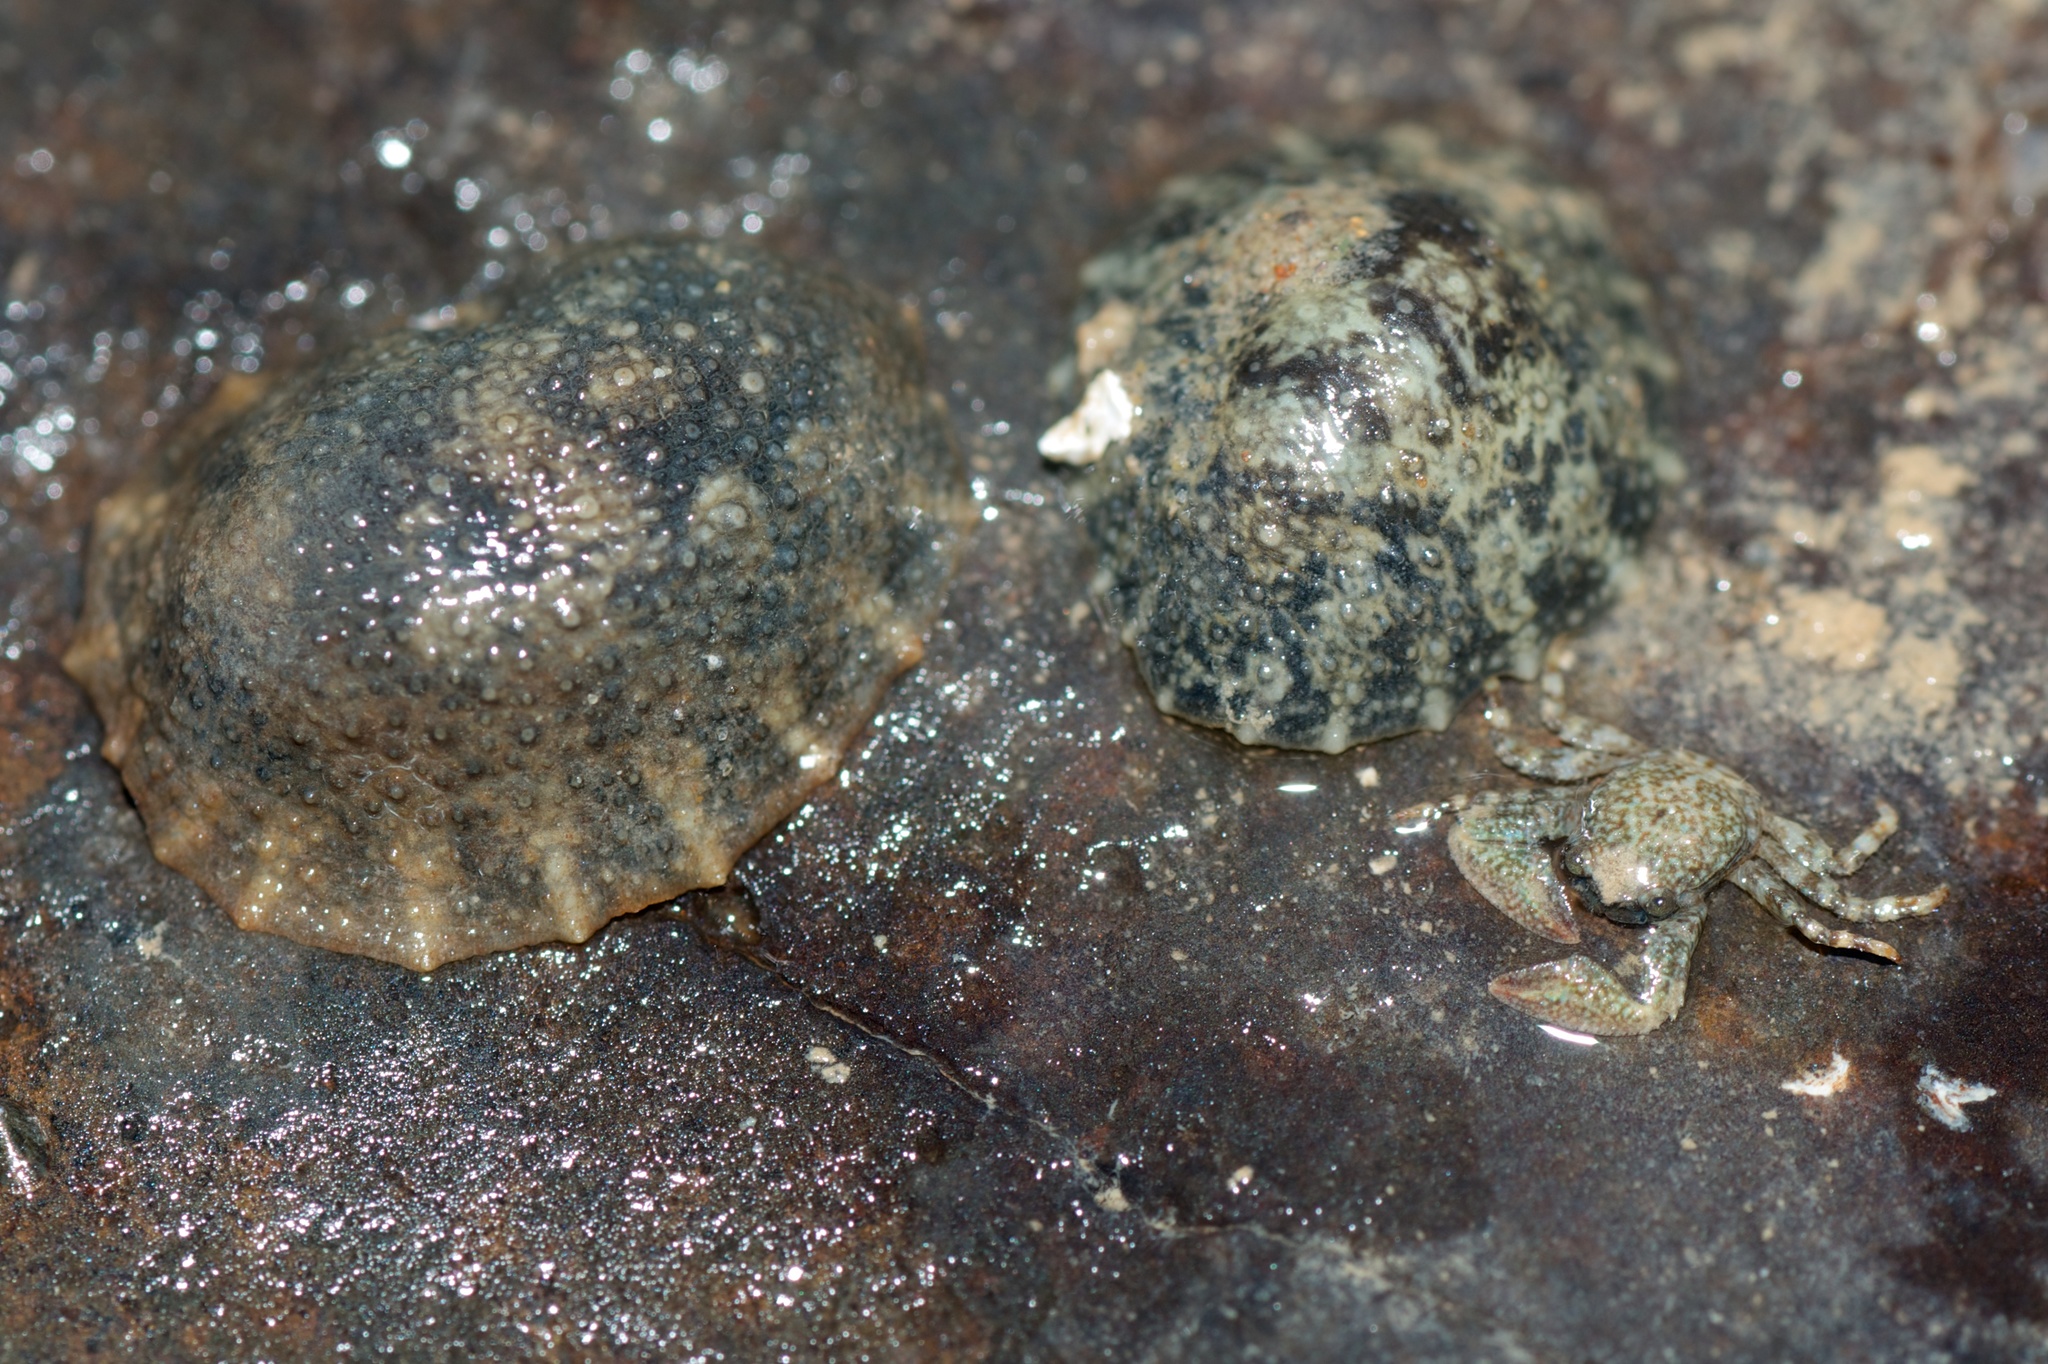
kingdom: Animalia
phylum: Mollusca
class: Gastropoda
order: Systellommatophora
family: Onchidiidae
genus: Onchidella
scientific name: Onchidella nigricans
